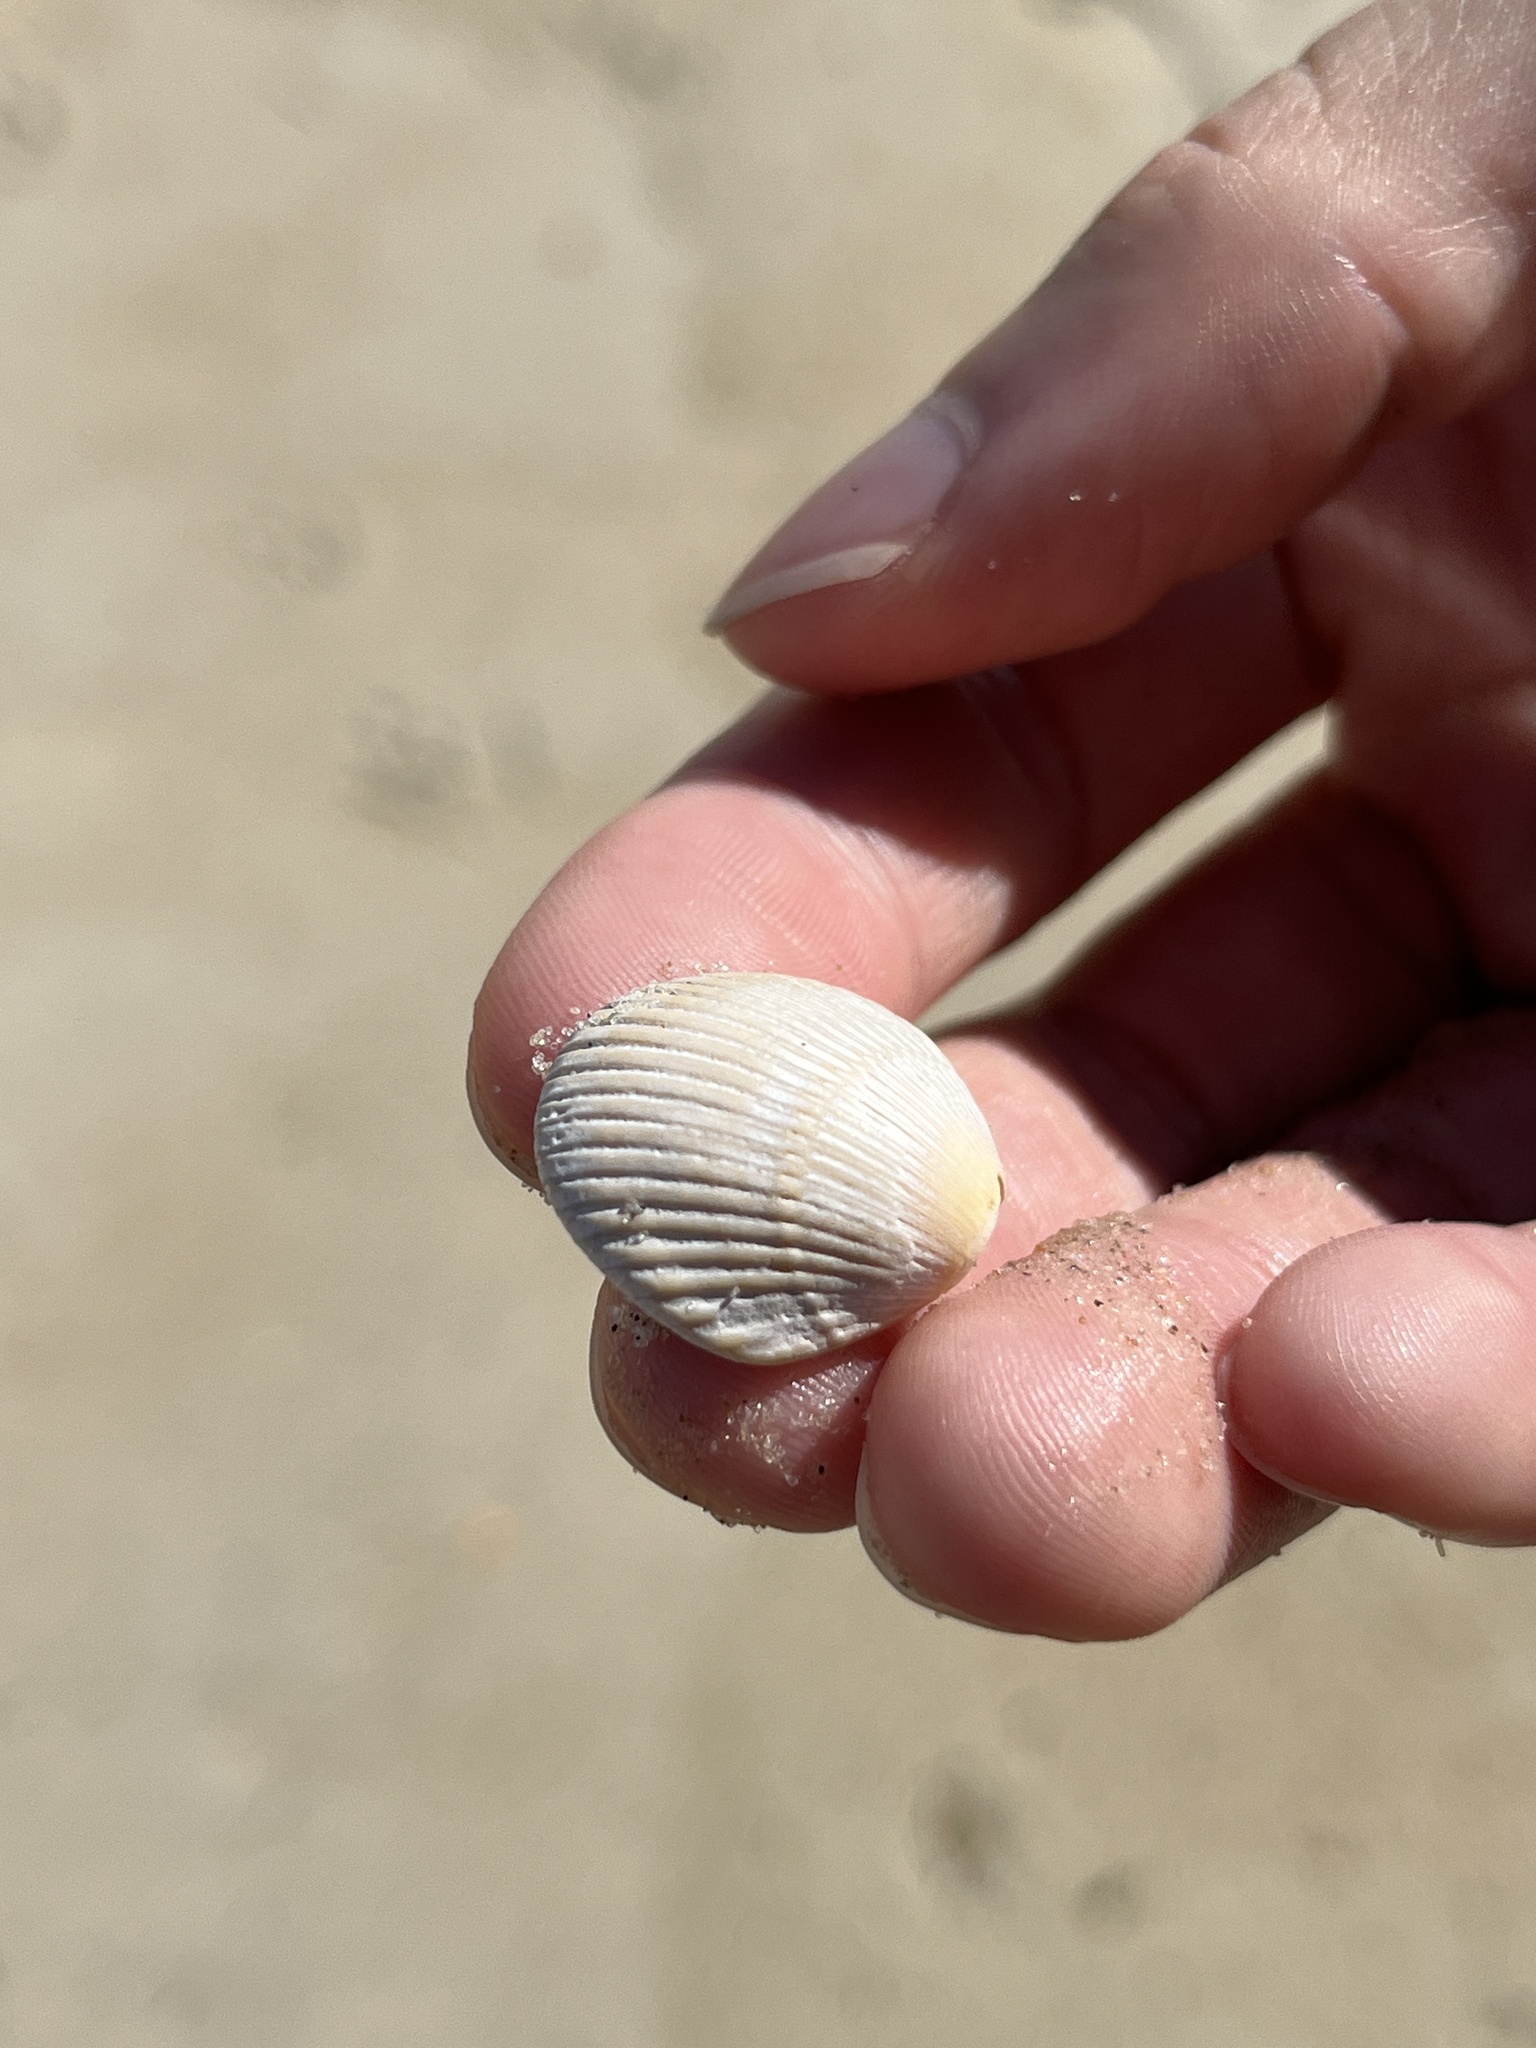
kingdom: Animalia
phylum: Mollusca
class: Bivalvia
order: Arcida
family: Arcidae
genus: Lunarca
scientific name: Lunarca ovalis
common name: Blood ark
